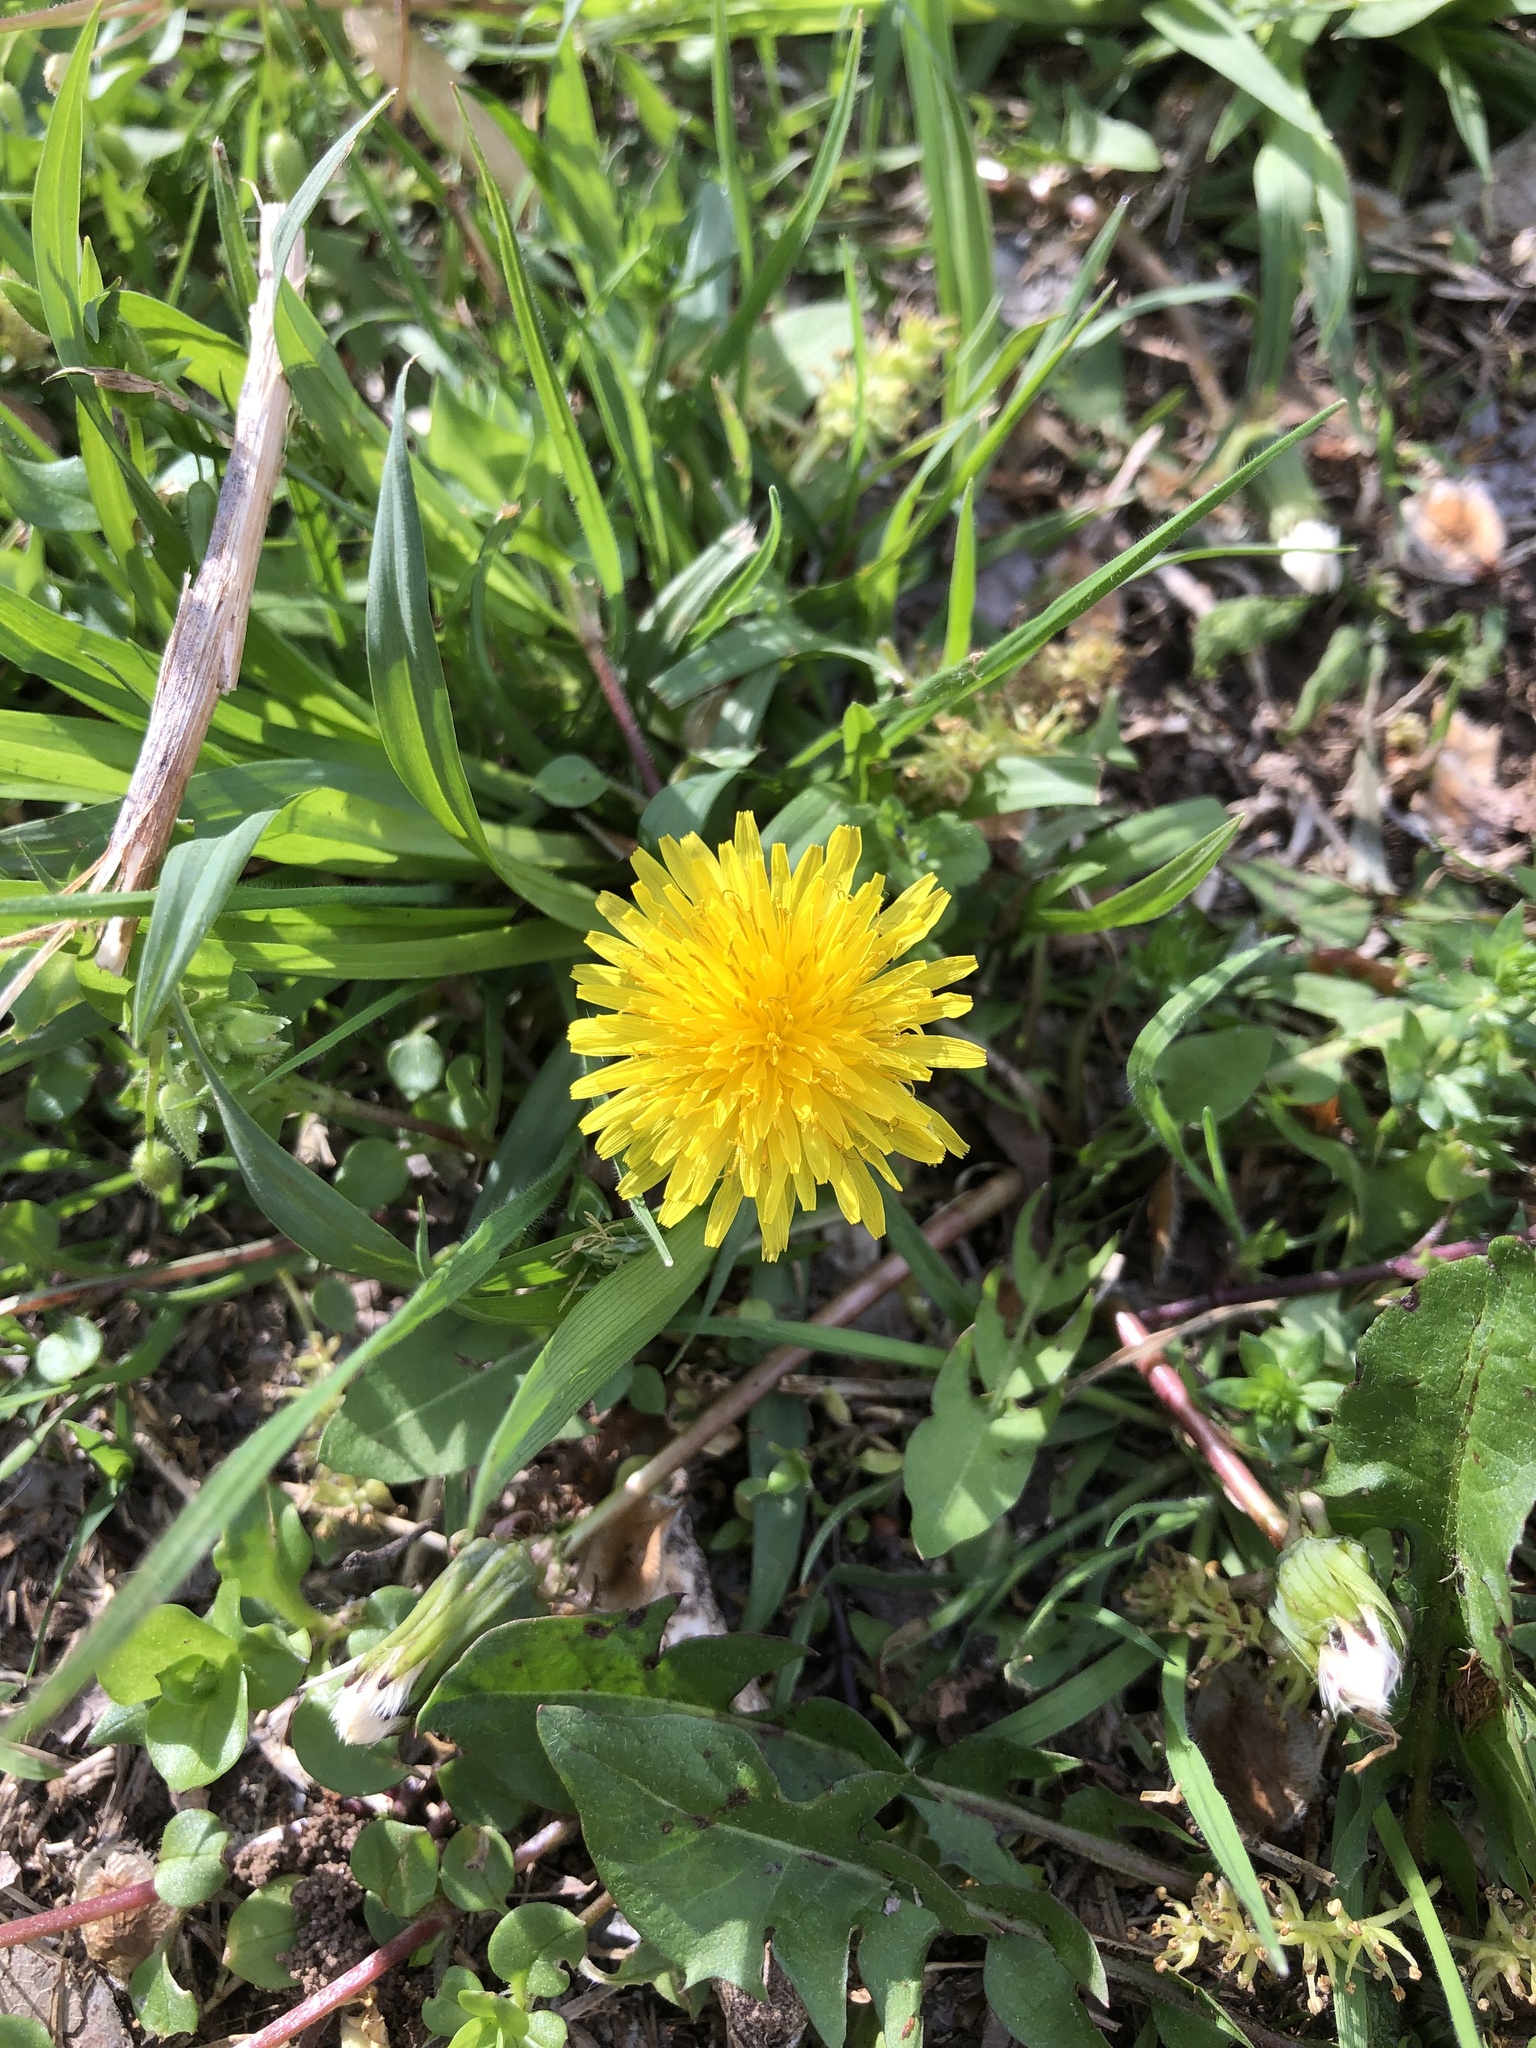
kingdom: Plantae
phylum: Tracheophyta
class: Magnoliopsida
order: Asterales
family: Asteraceae
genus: Taraxacum
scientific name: Taraxacum
